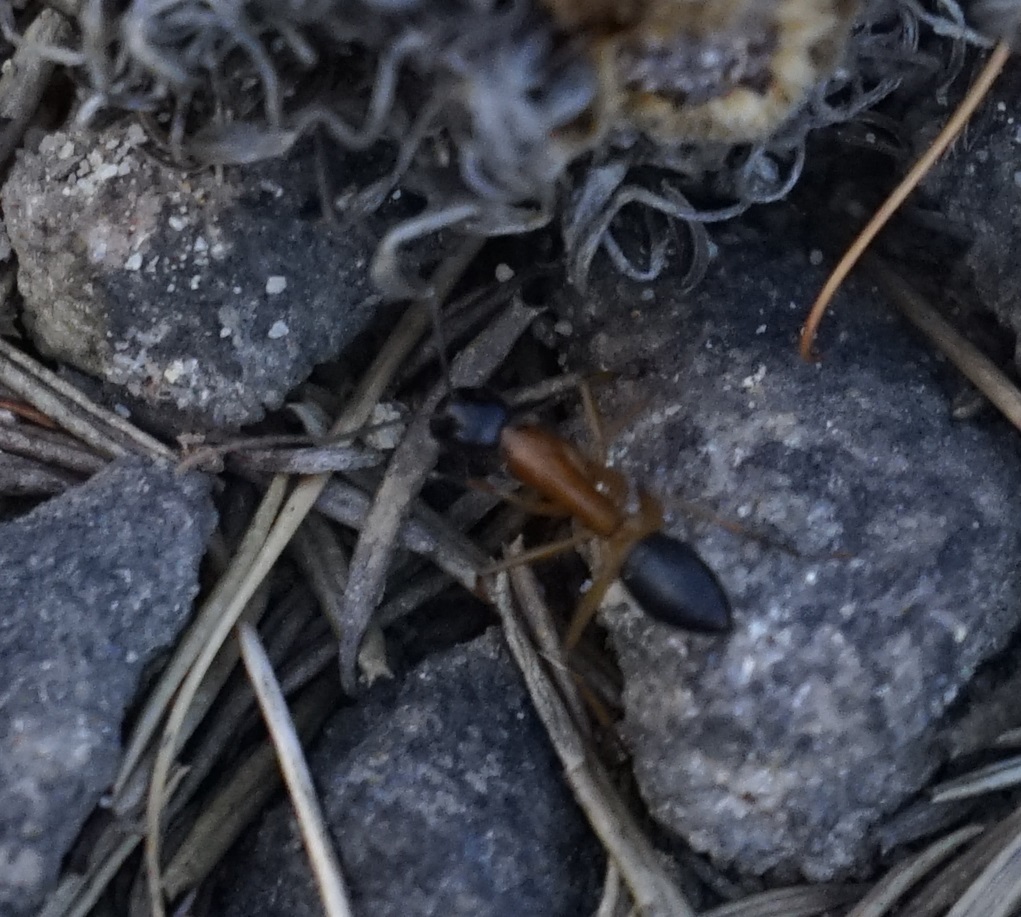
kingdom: Animalia
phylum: Arthropoda
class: Insecta
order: Hymenoptera
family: Formicidae
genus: Camponotus
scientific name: Camponotus consobrinus
